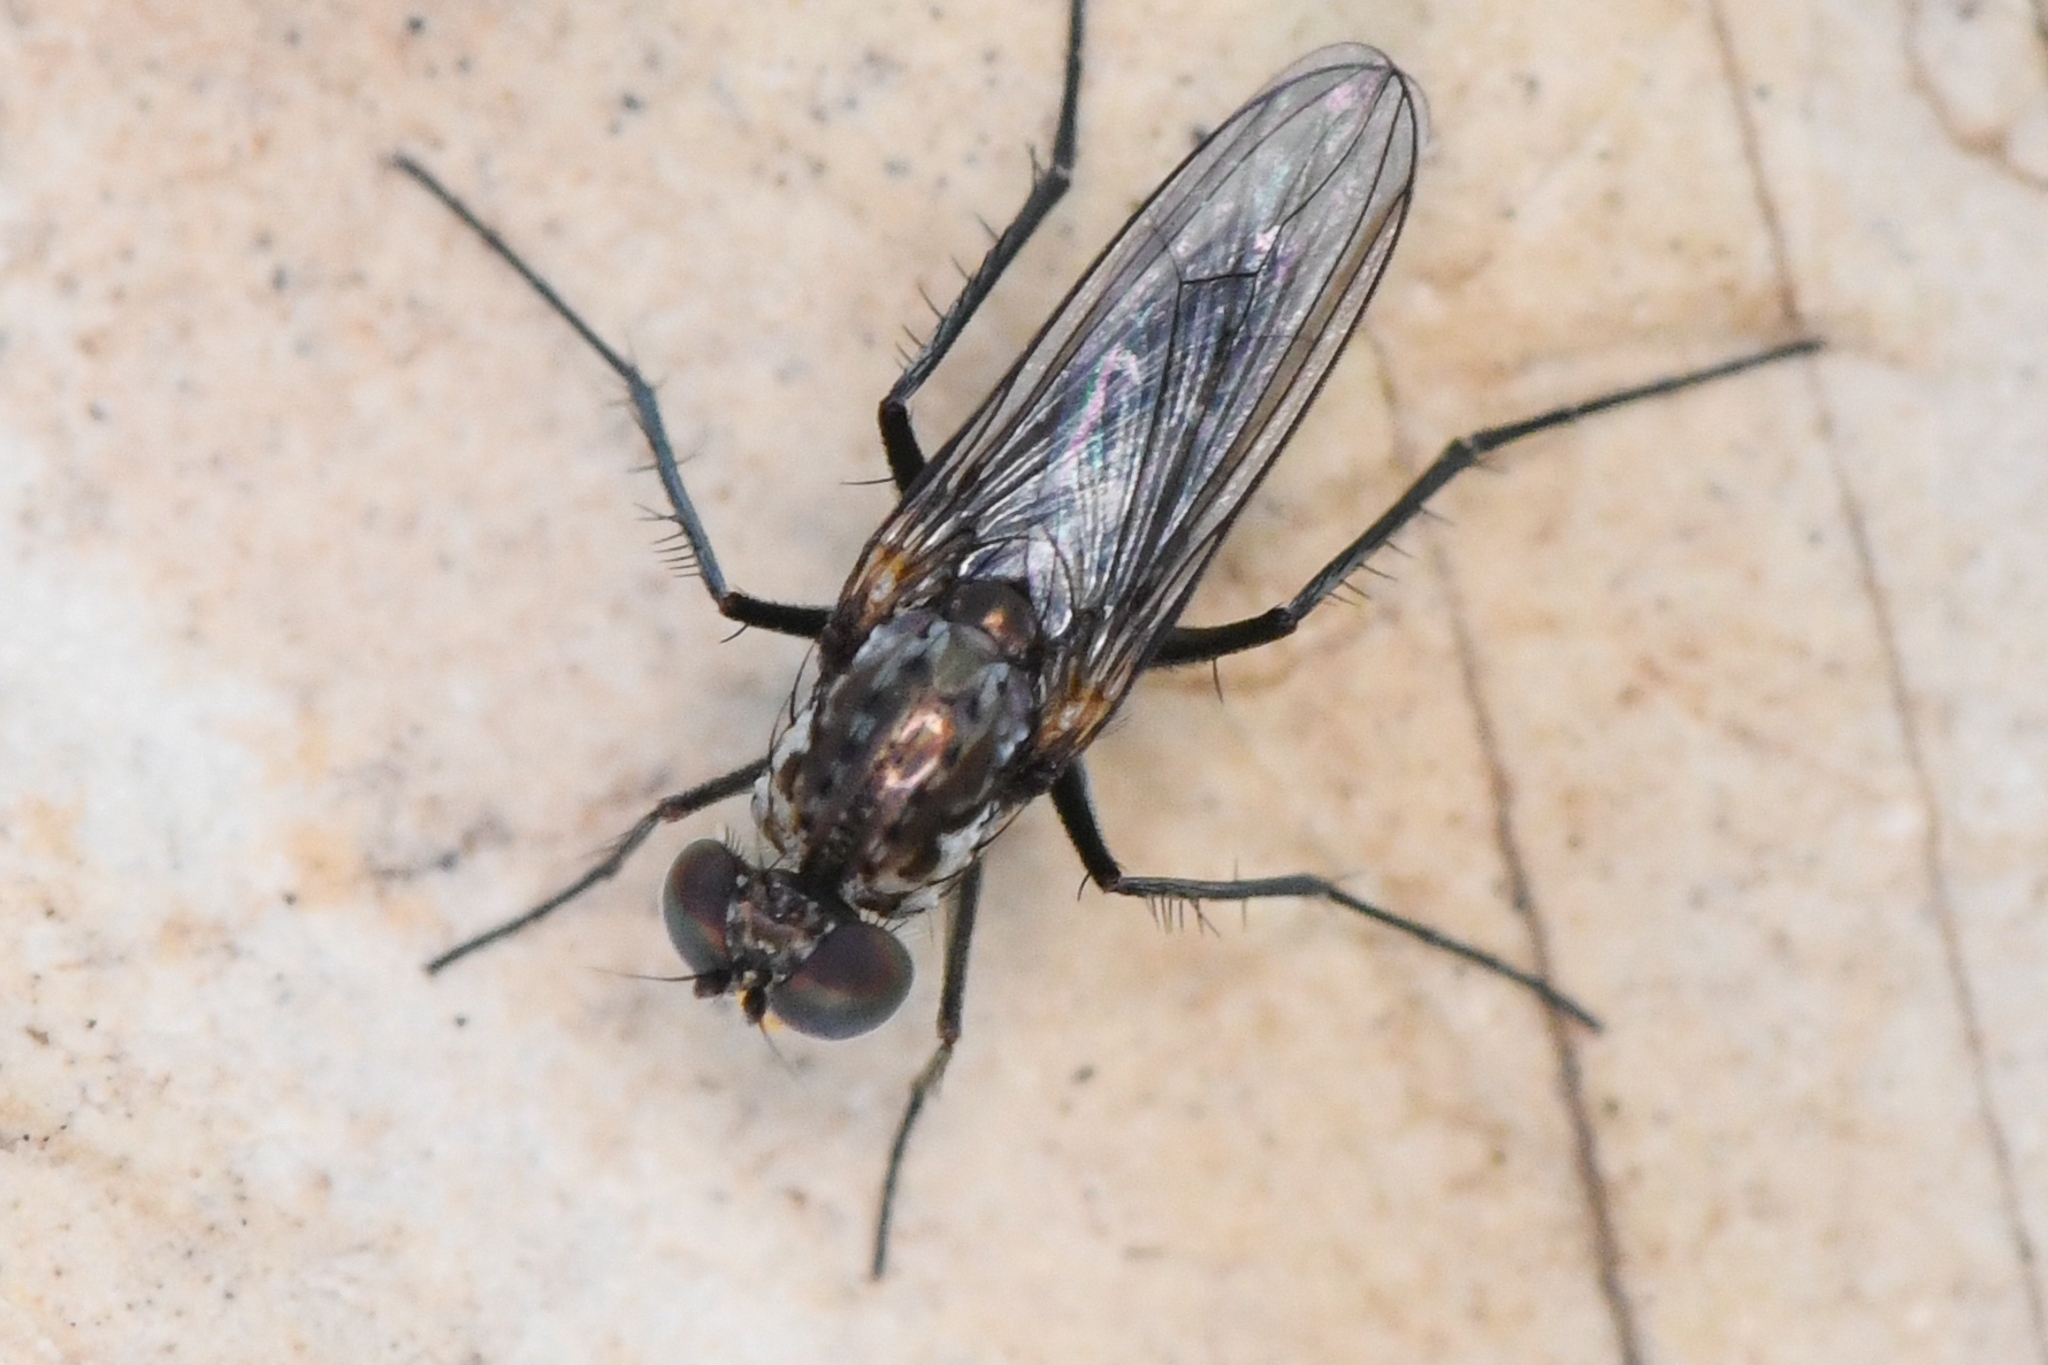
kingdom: Animalia
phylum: Arthropoda
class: Insecta
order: Diptera
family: Dolichopodidae
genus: Tachytrechus
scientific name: Tachytrechus angustipennis
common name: Long-legged fly
